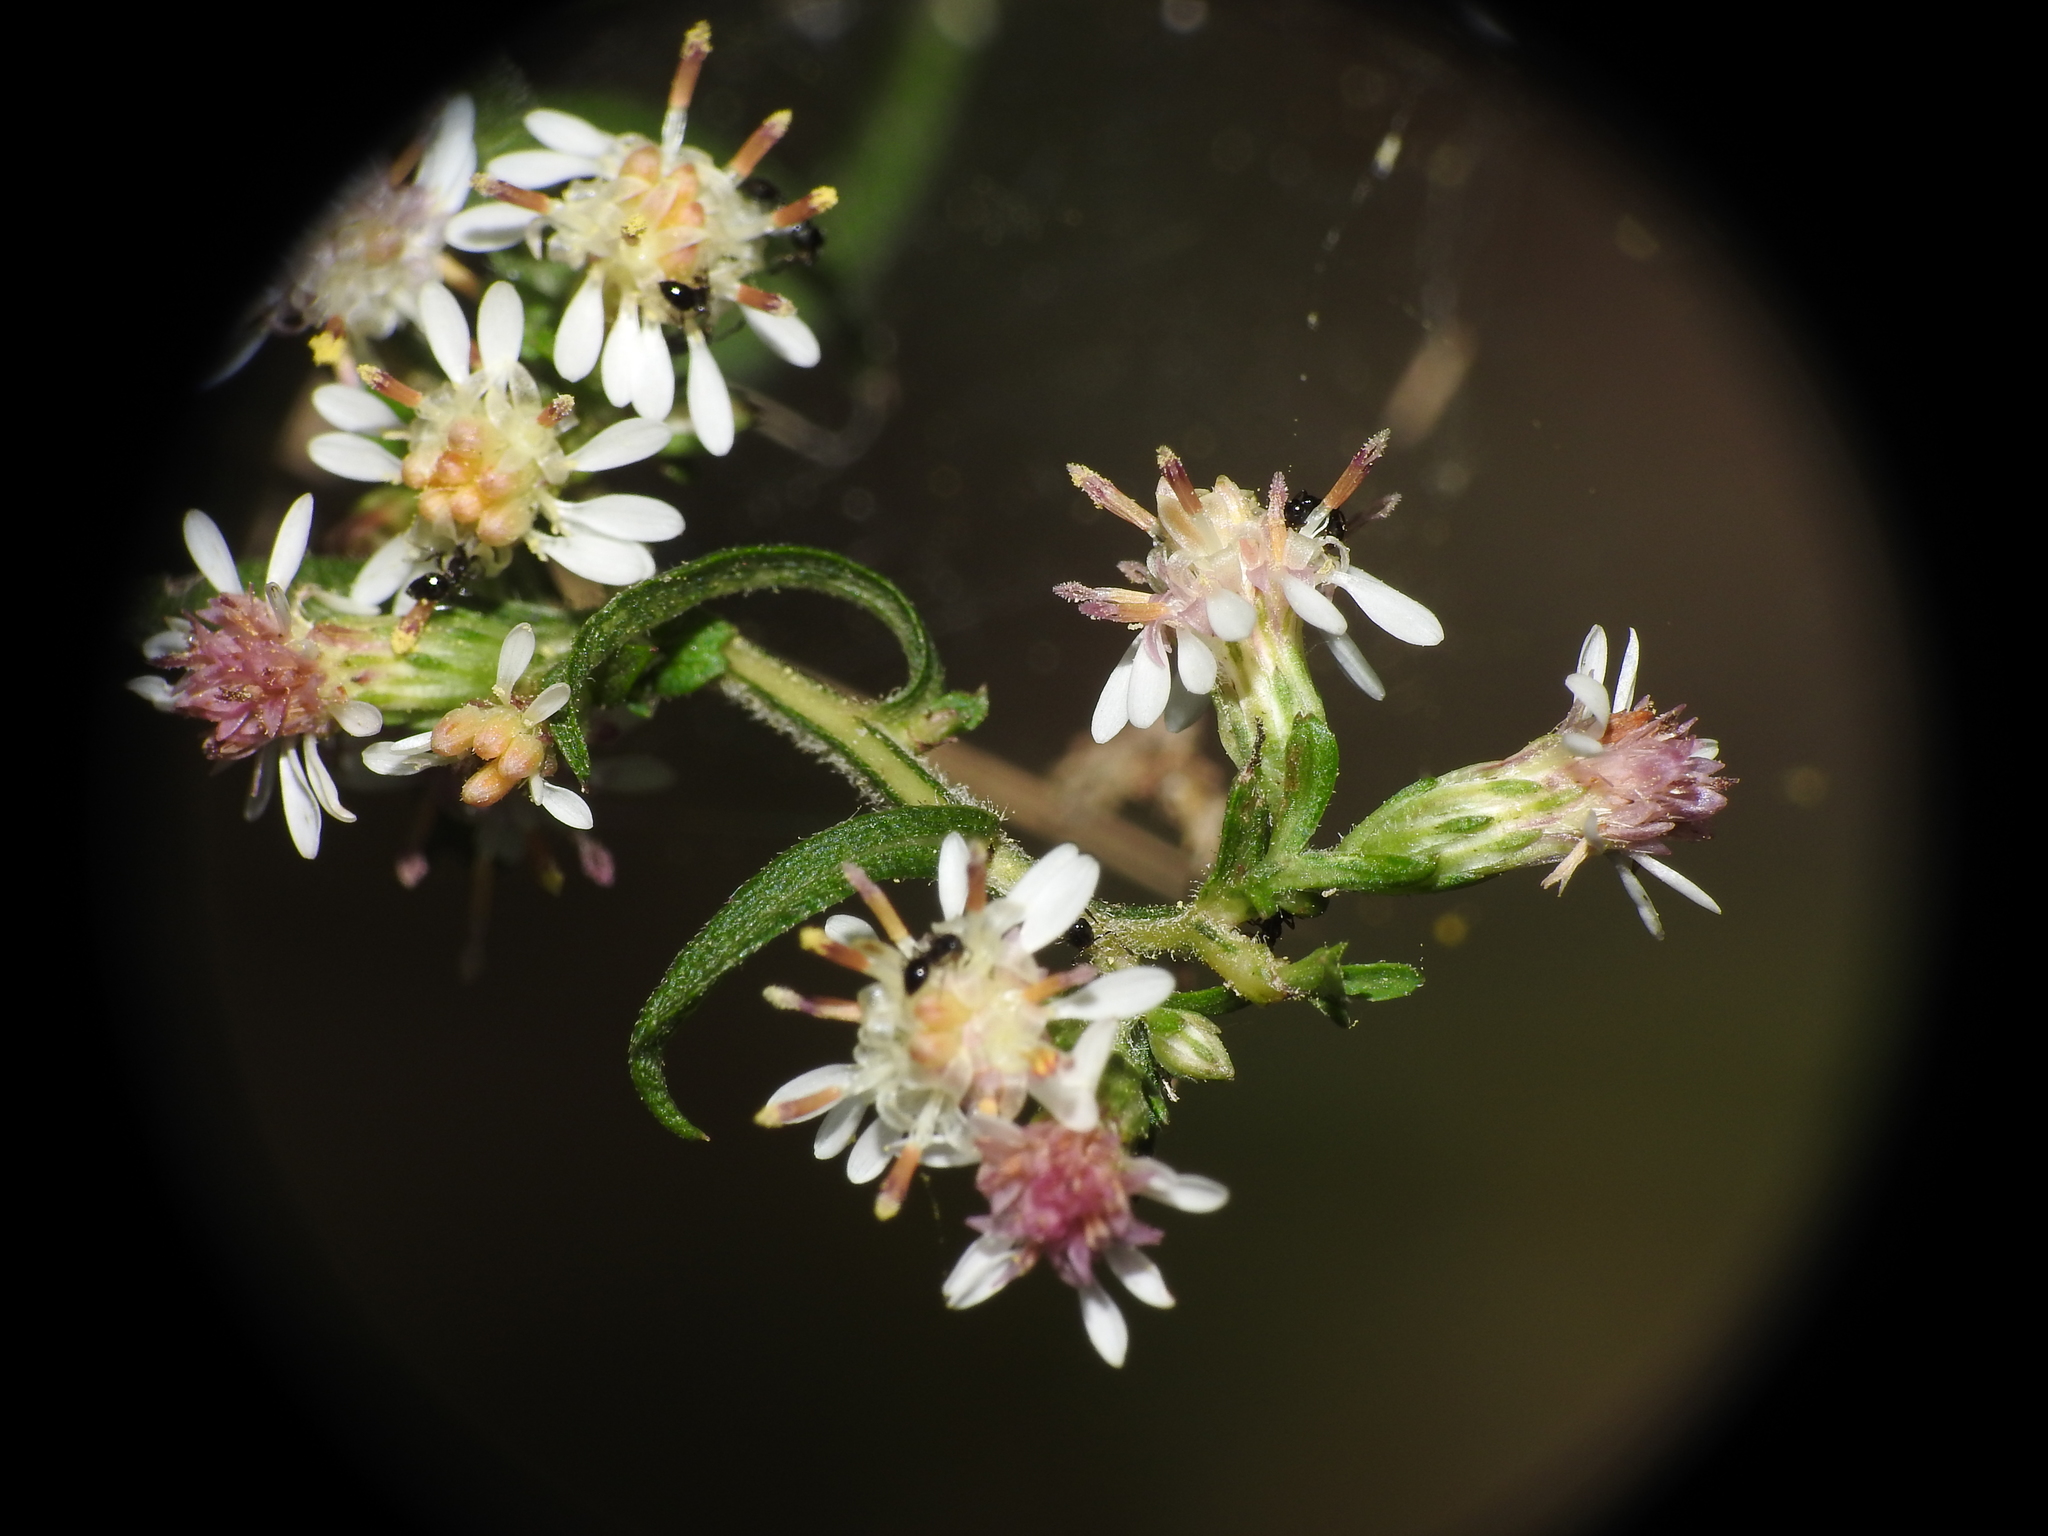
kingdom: Plantae
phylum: Tracheophyta
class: Magnoliopsida
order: Asterales
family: Asteraceae
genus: Symphyotrichum
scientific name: Symphyotrichum lateriflorum
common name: Calico aster
